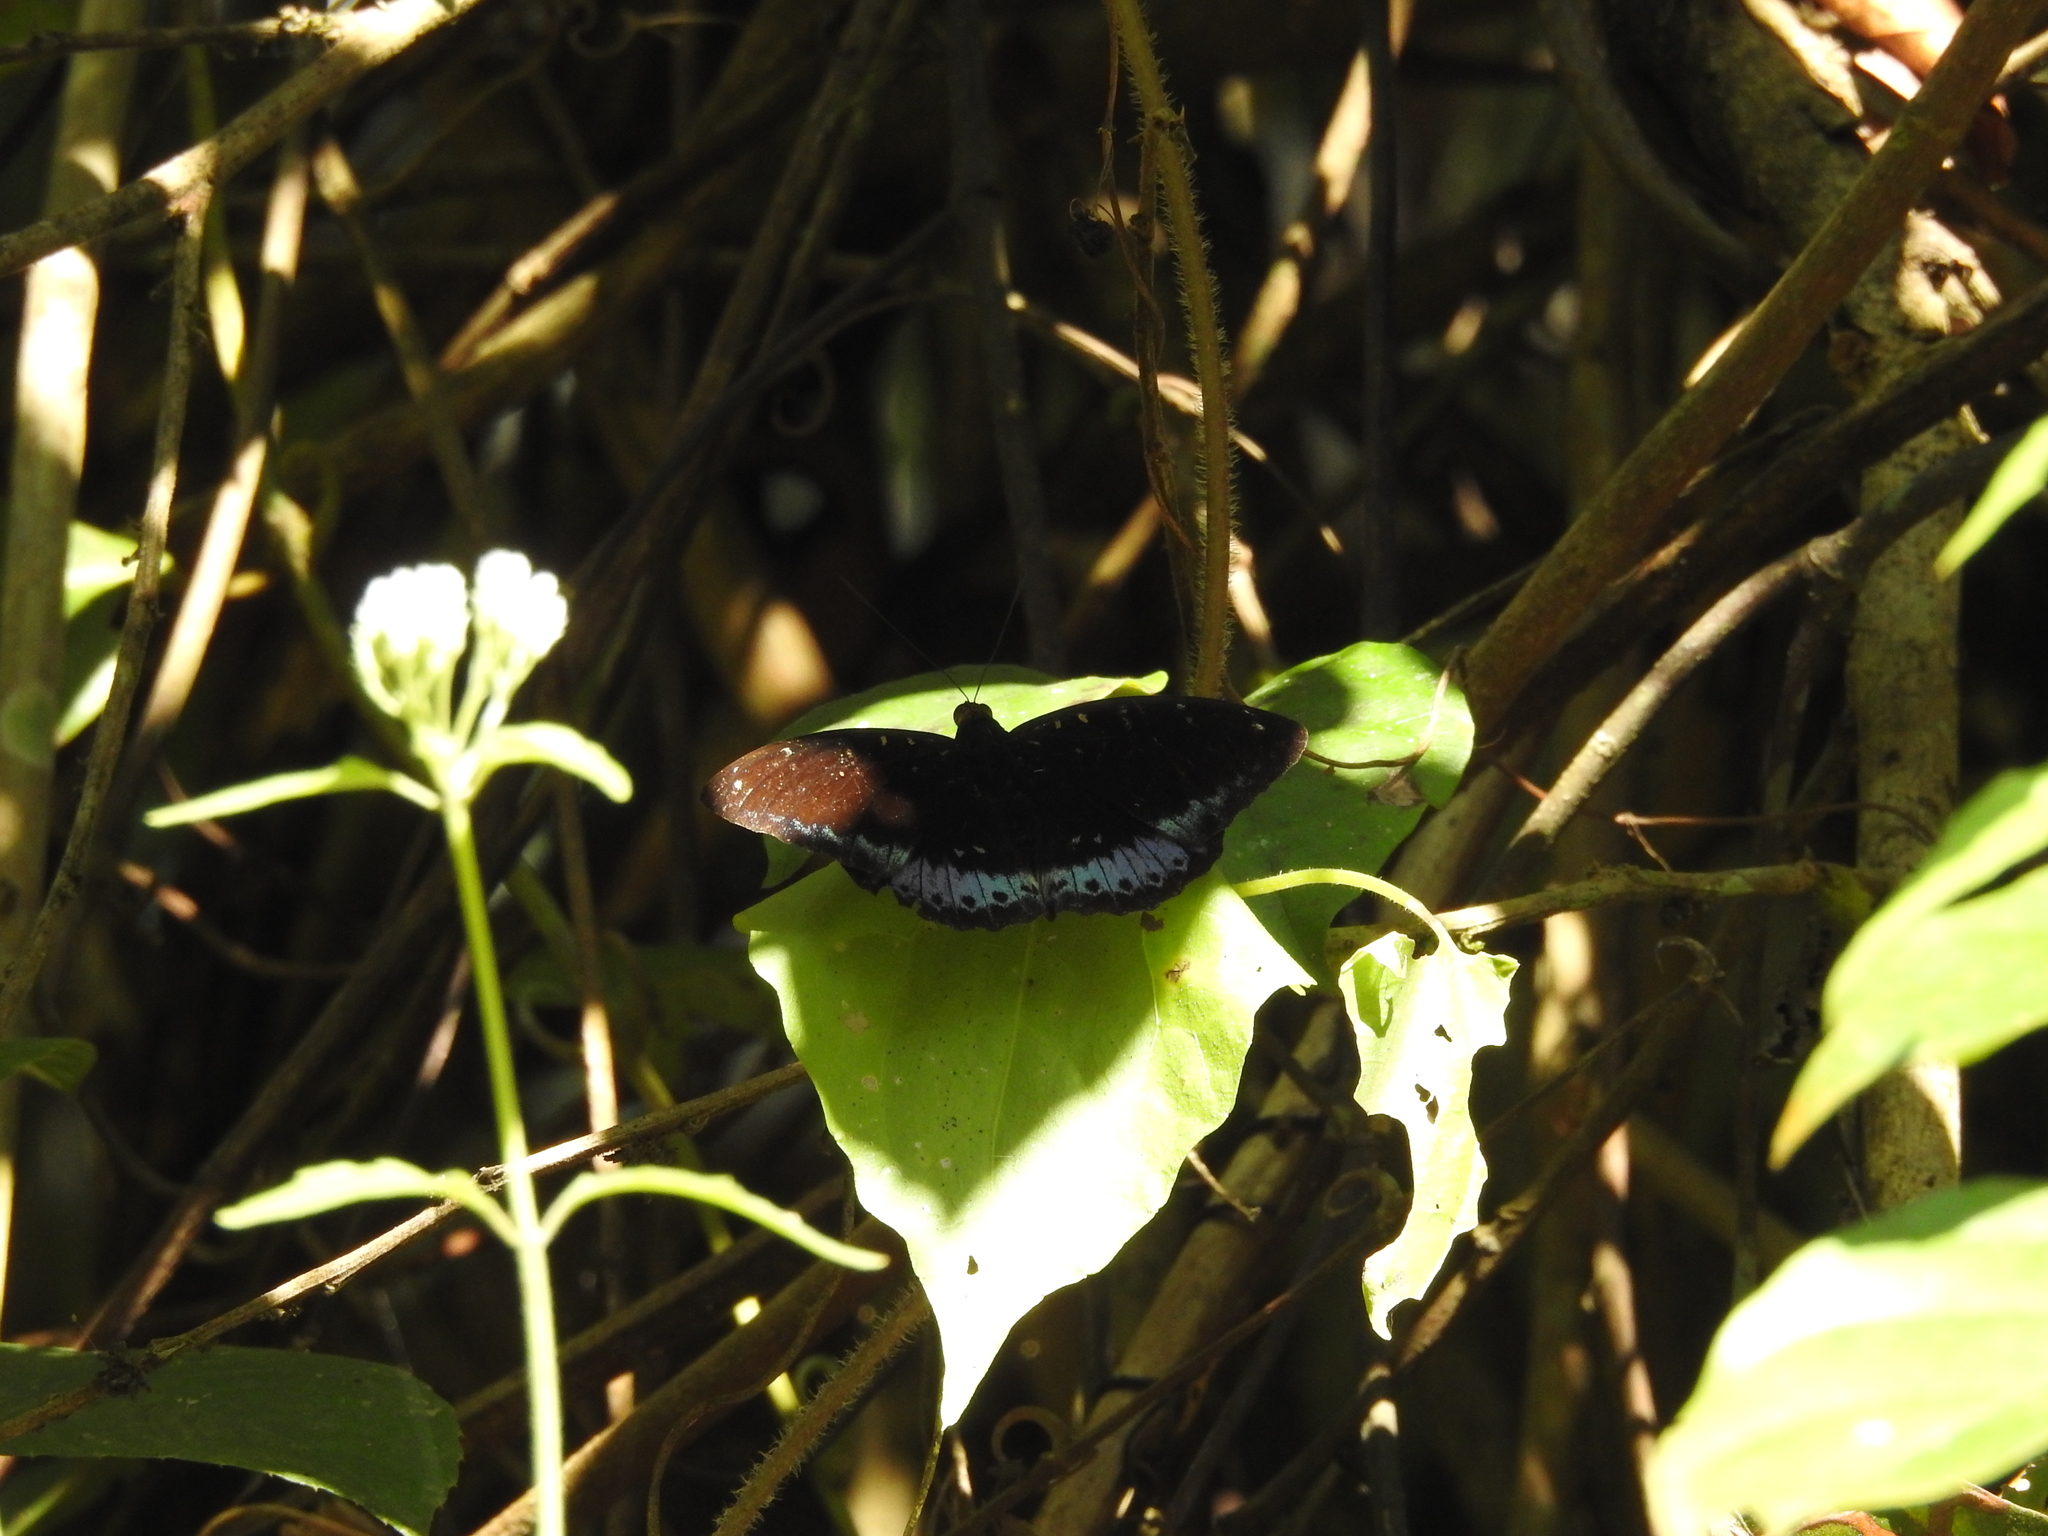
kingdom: Animalia
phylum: Arthropoda
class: Insecta
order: Lepidoptera
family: Nymphalidae
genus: Lexias
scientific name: Lexias dirtea
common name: Black-tipped archduke
